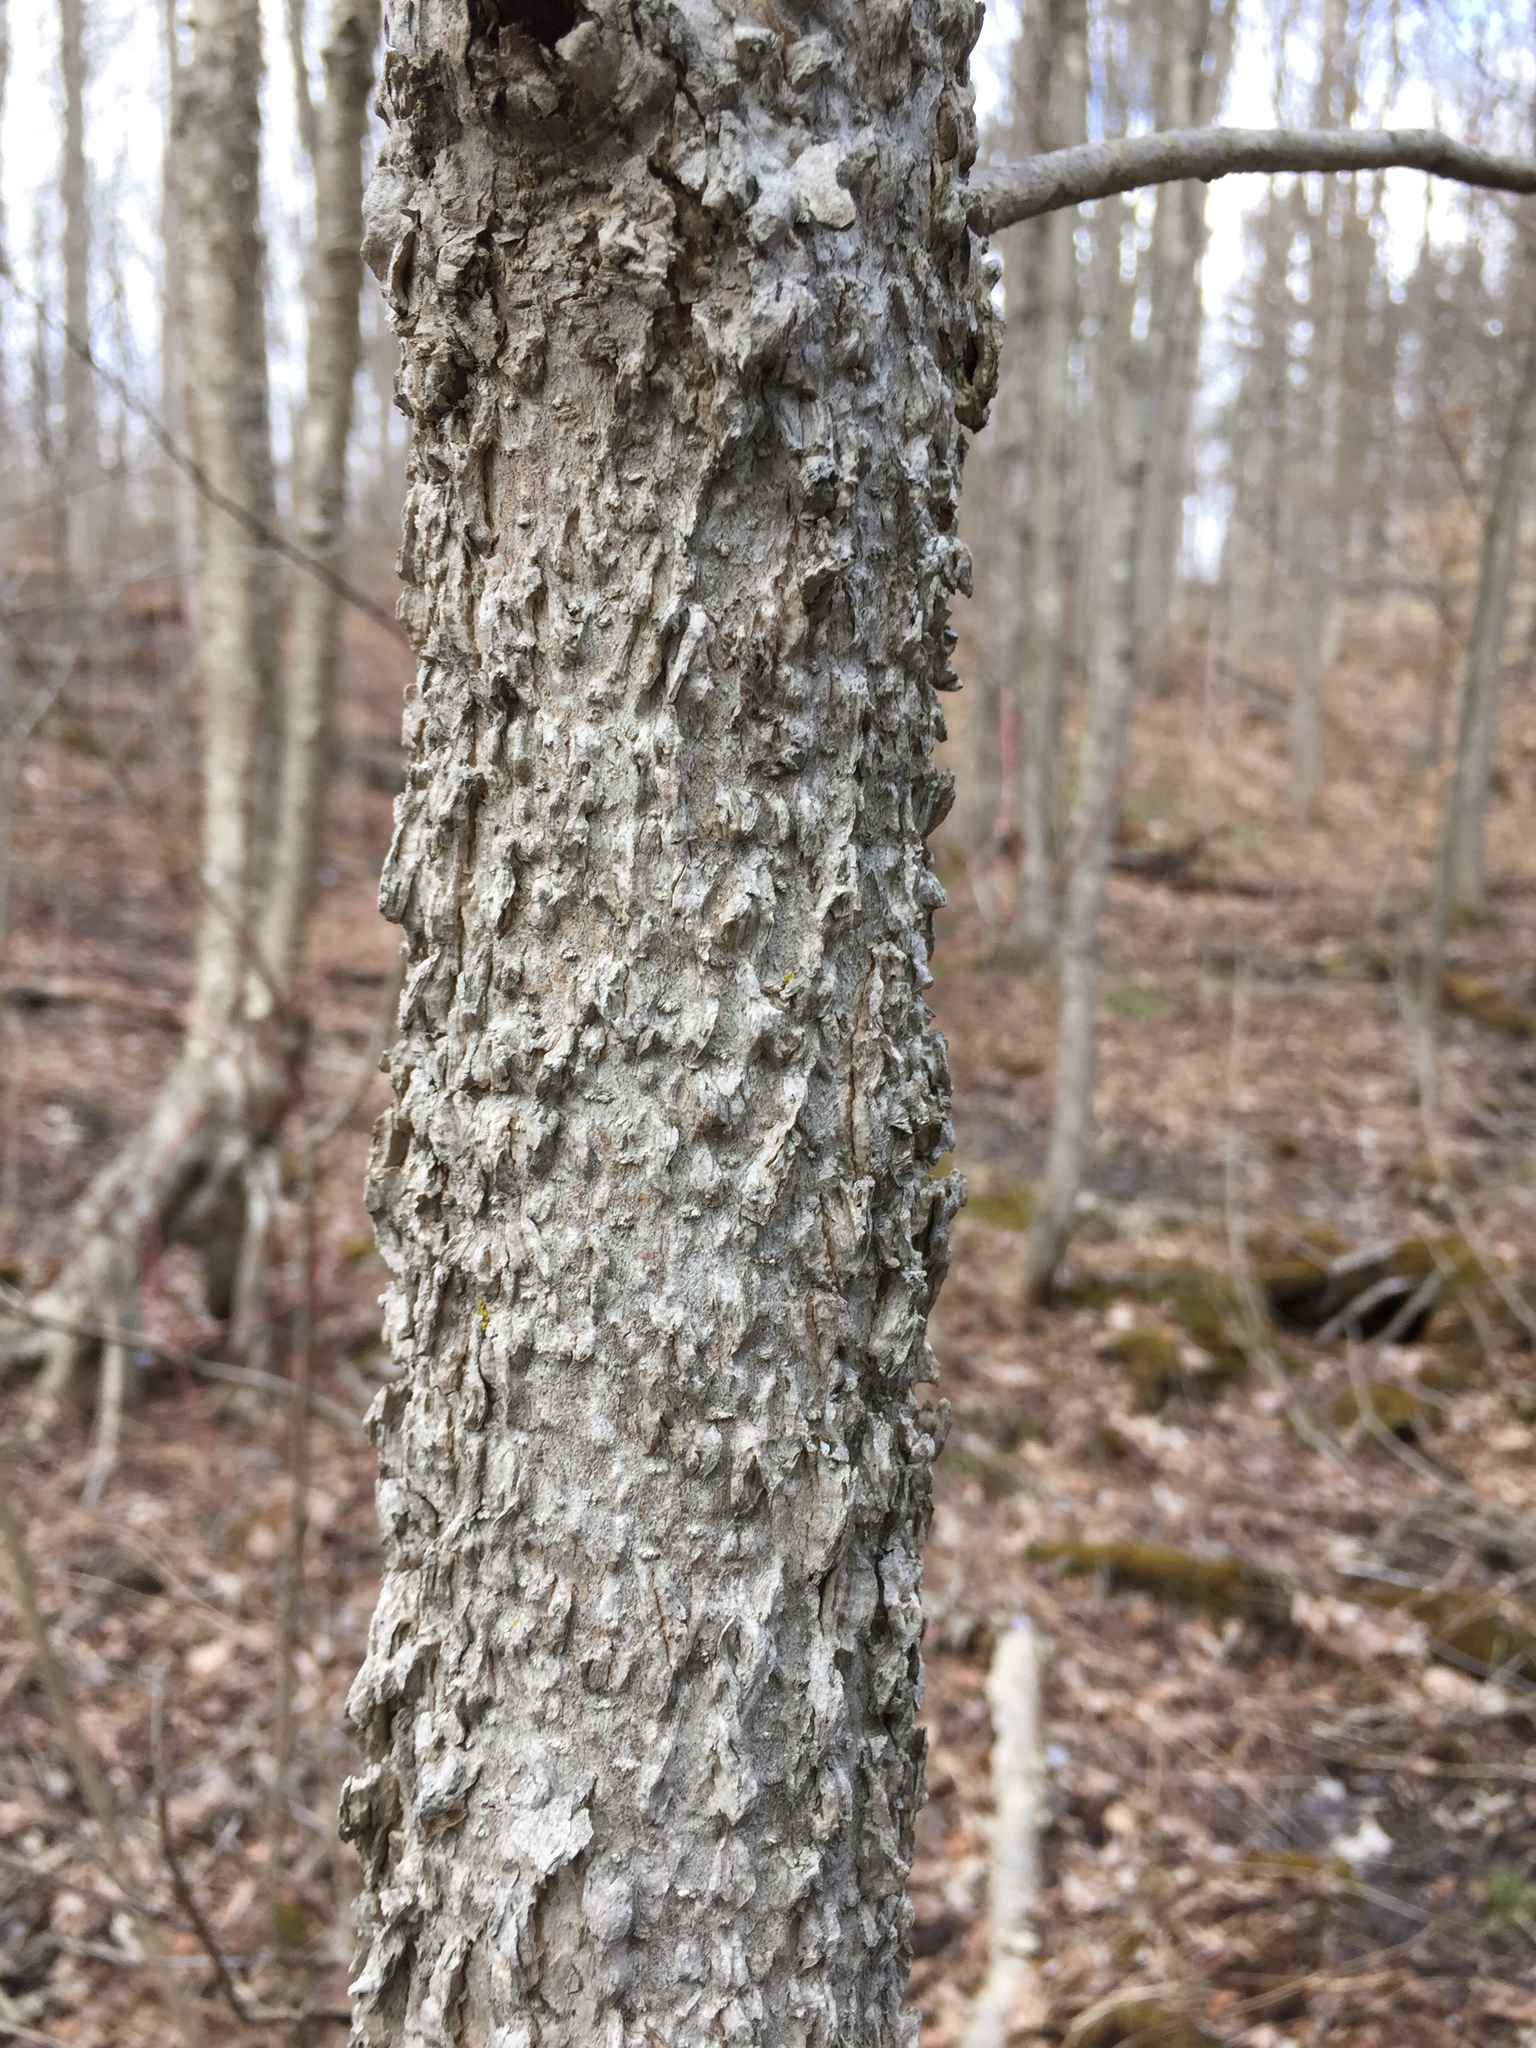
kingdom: Plantae
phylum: Tracheophyta
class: Magnoliopsida
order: Lamiales
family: Oleaceae
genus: Fraxinus
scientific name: Fraxinus nigra
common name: Black ash
